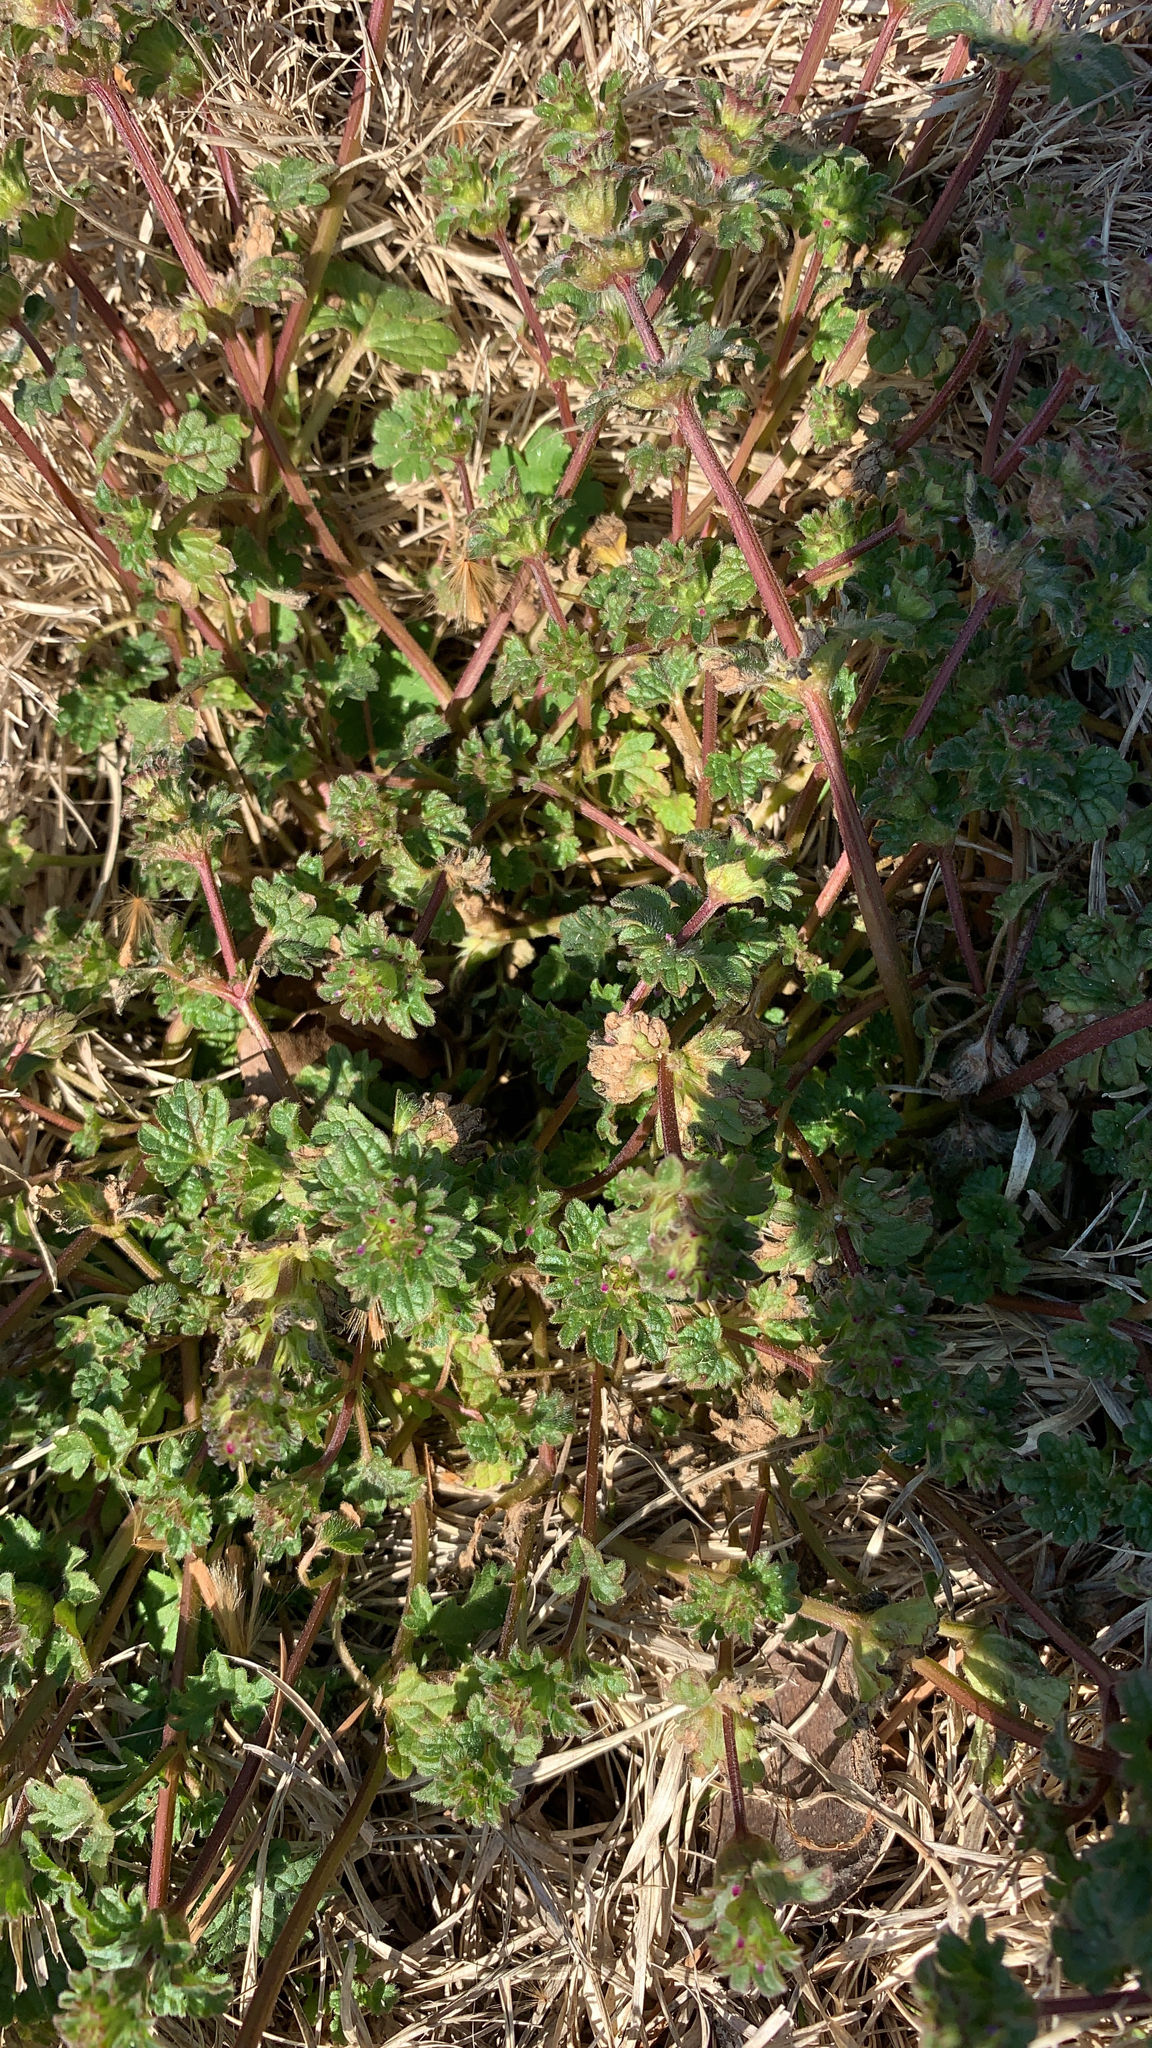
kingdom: Plantae
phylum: Tracheophyta
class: Magnoliopsida
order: Lamiales
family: Lamiaceae
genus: Lamium
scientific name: Lamium amplexicaule
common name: Henbit dead-nettle
